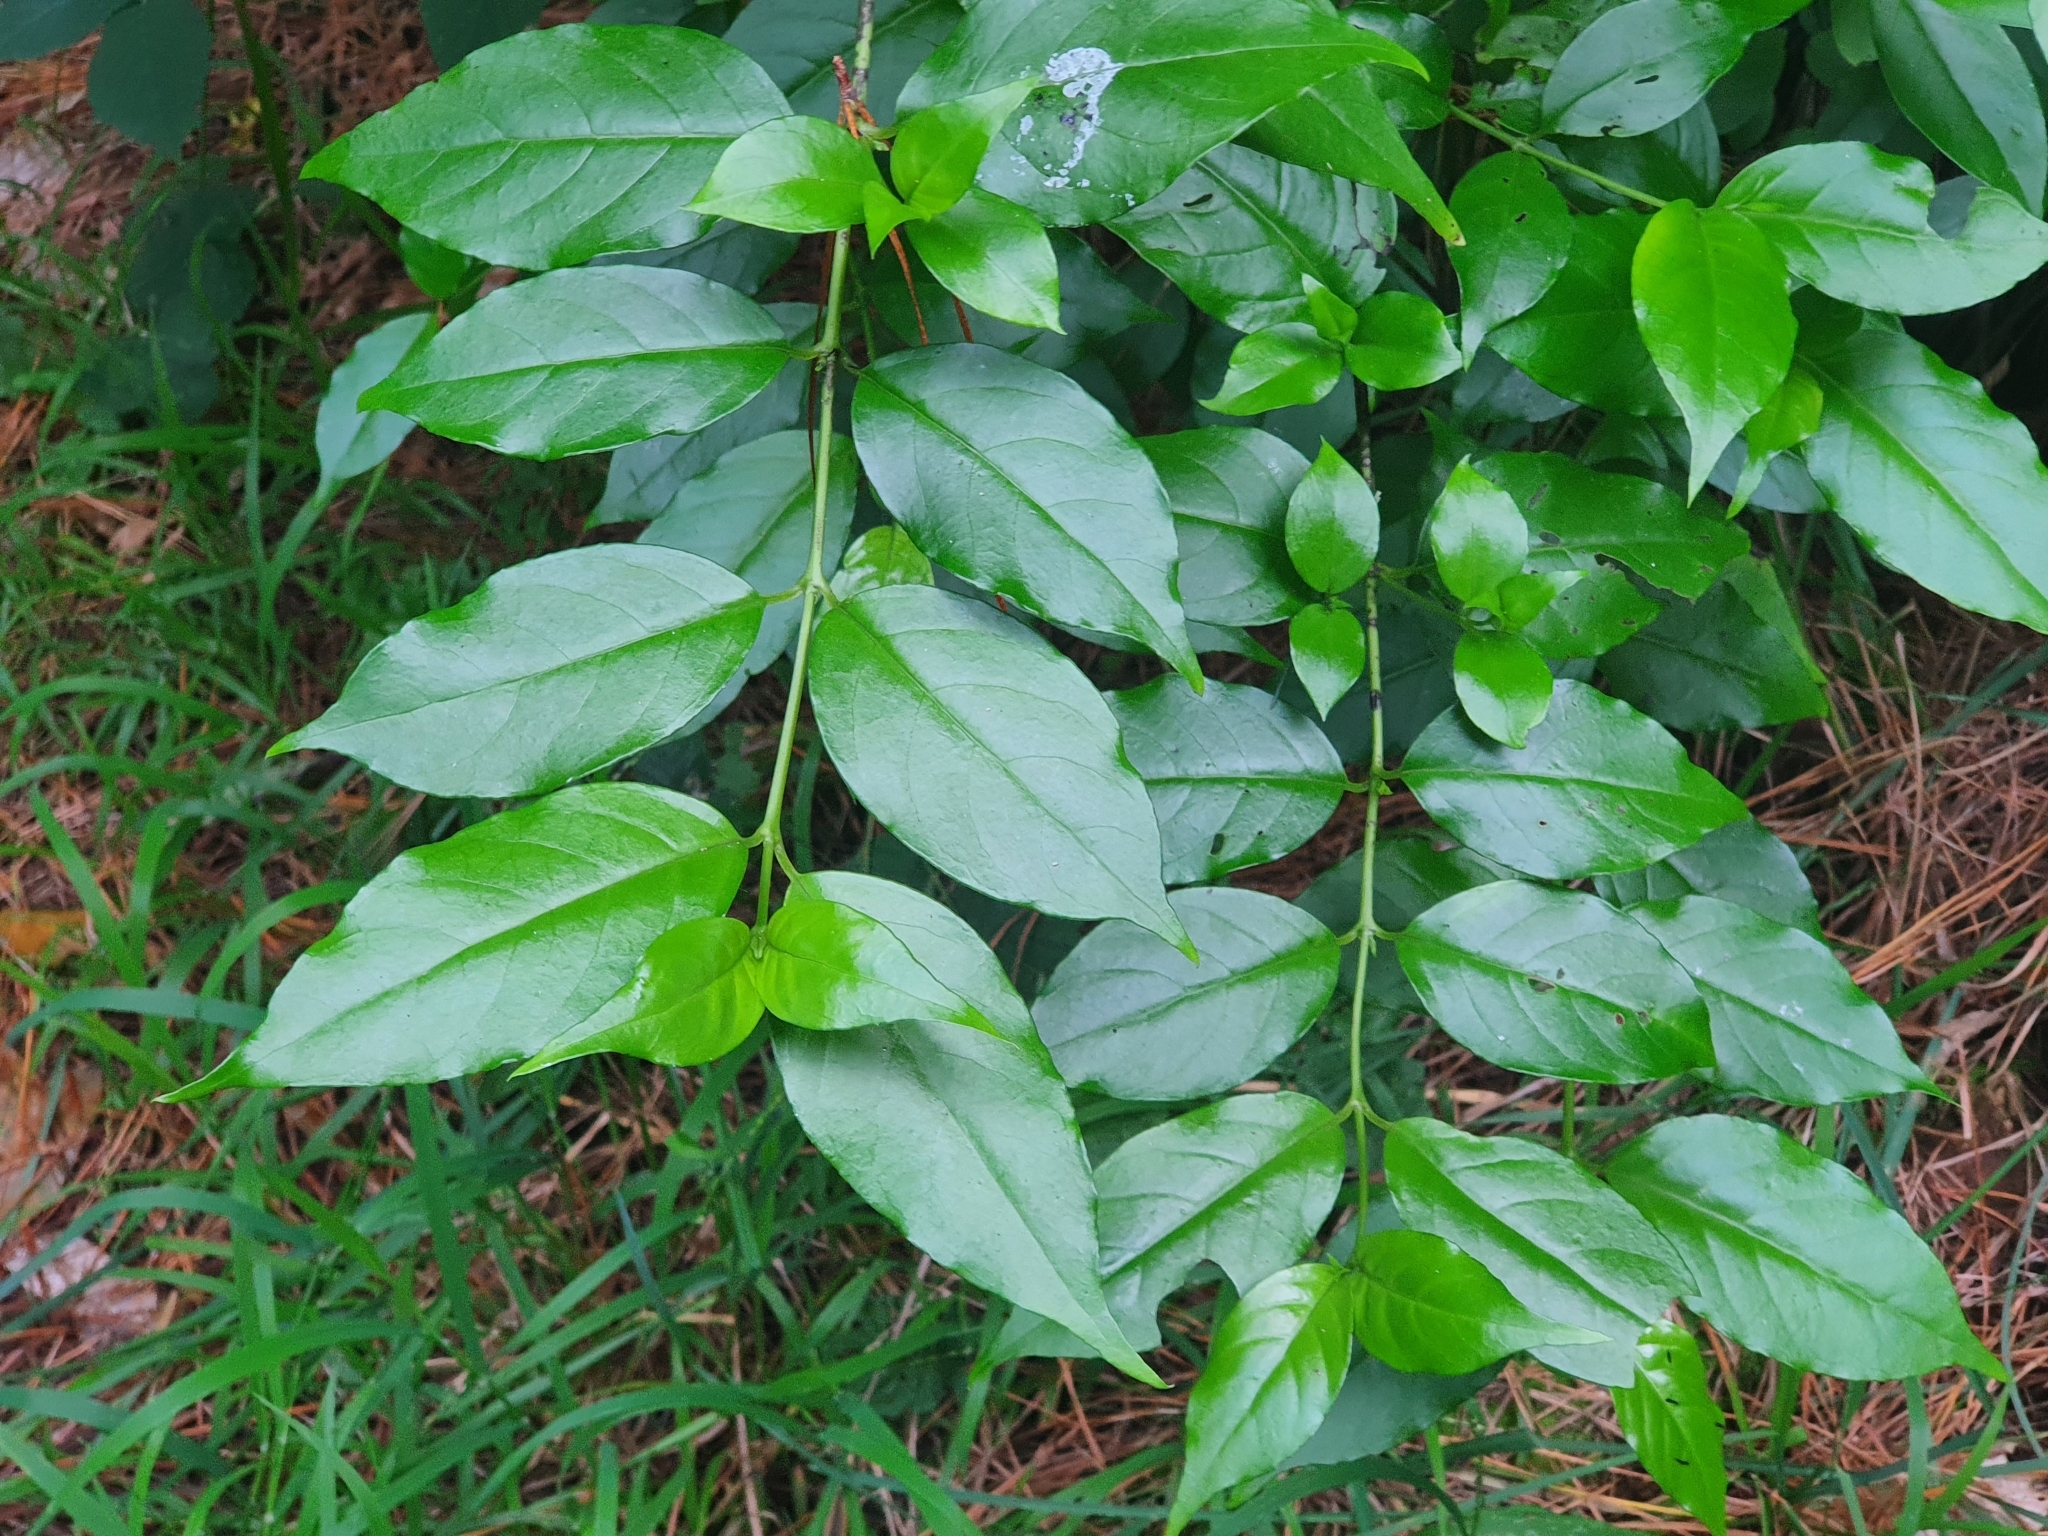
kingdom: Plantae
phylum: Tracheophyta
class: Magnoliopsida
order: Gentianales
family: Loganiaceae
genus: Geniostoma
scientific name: Geniostoma ligustrifolium
